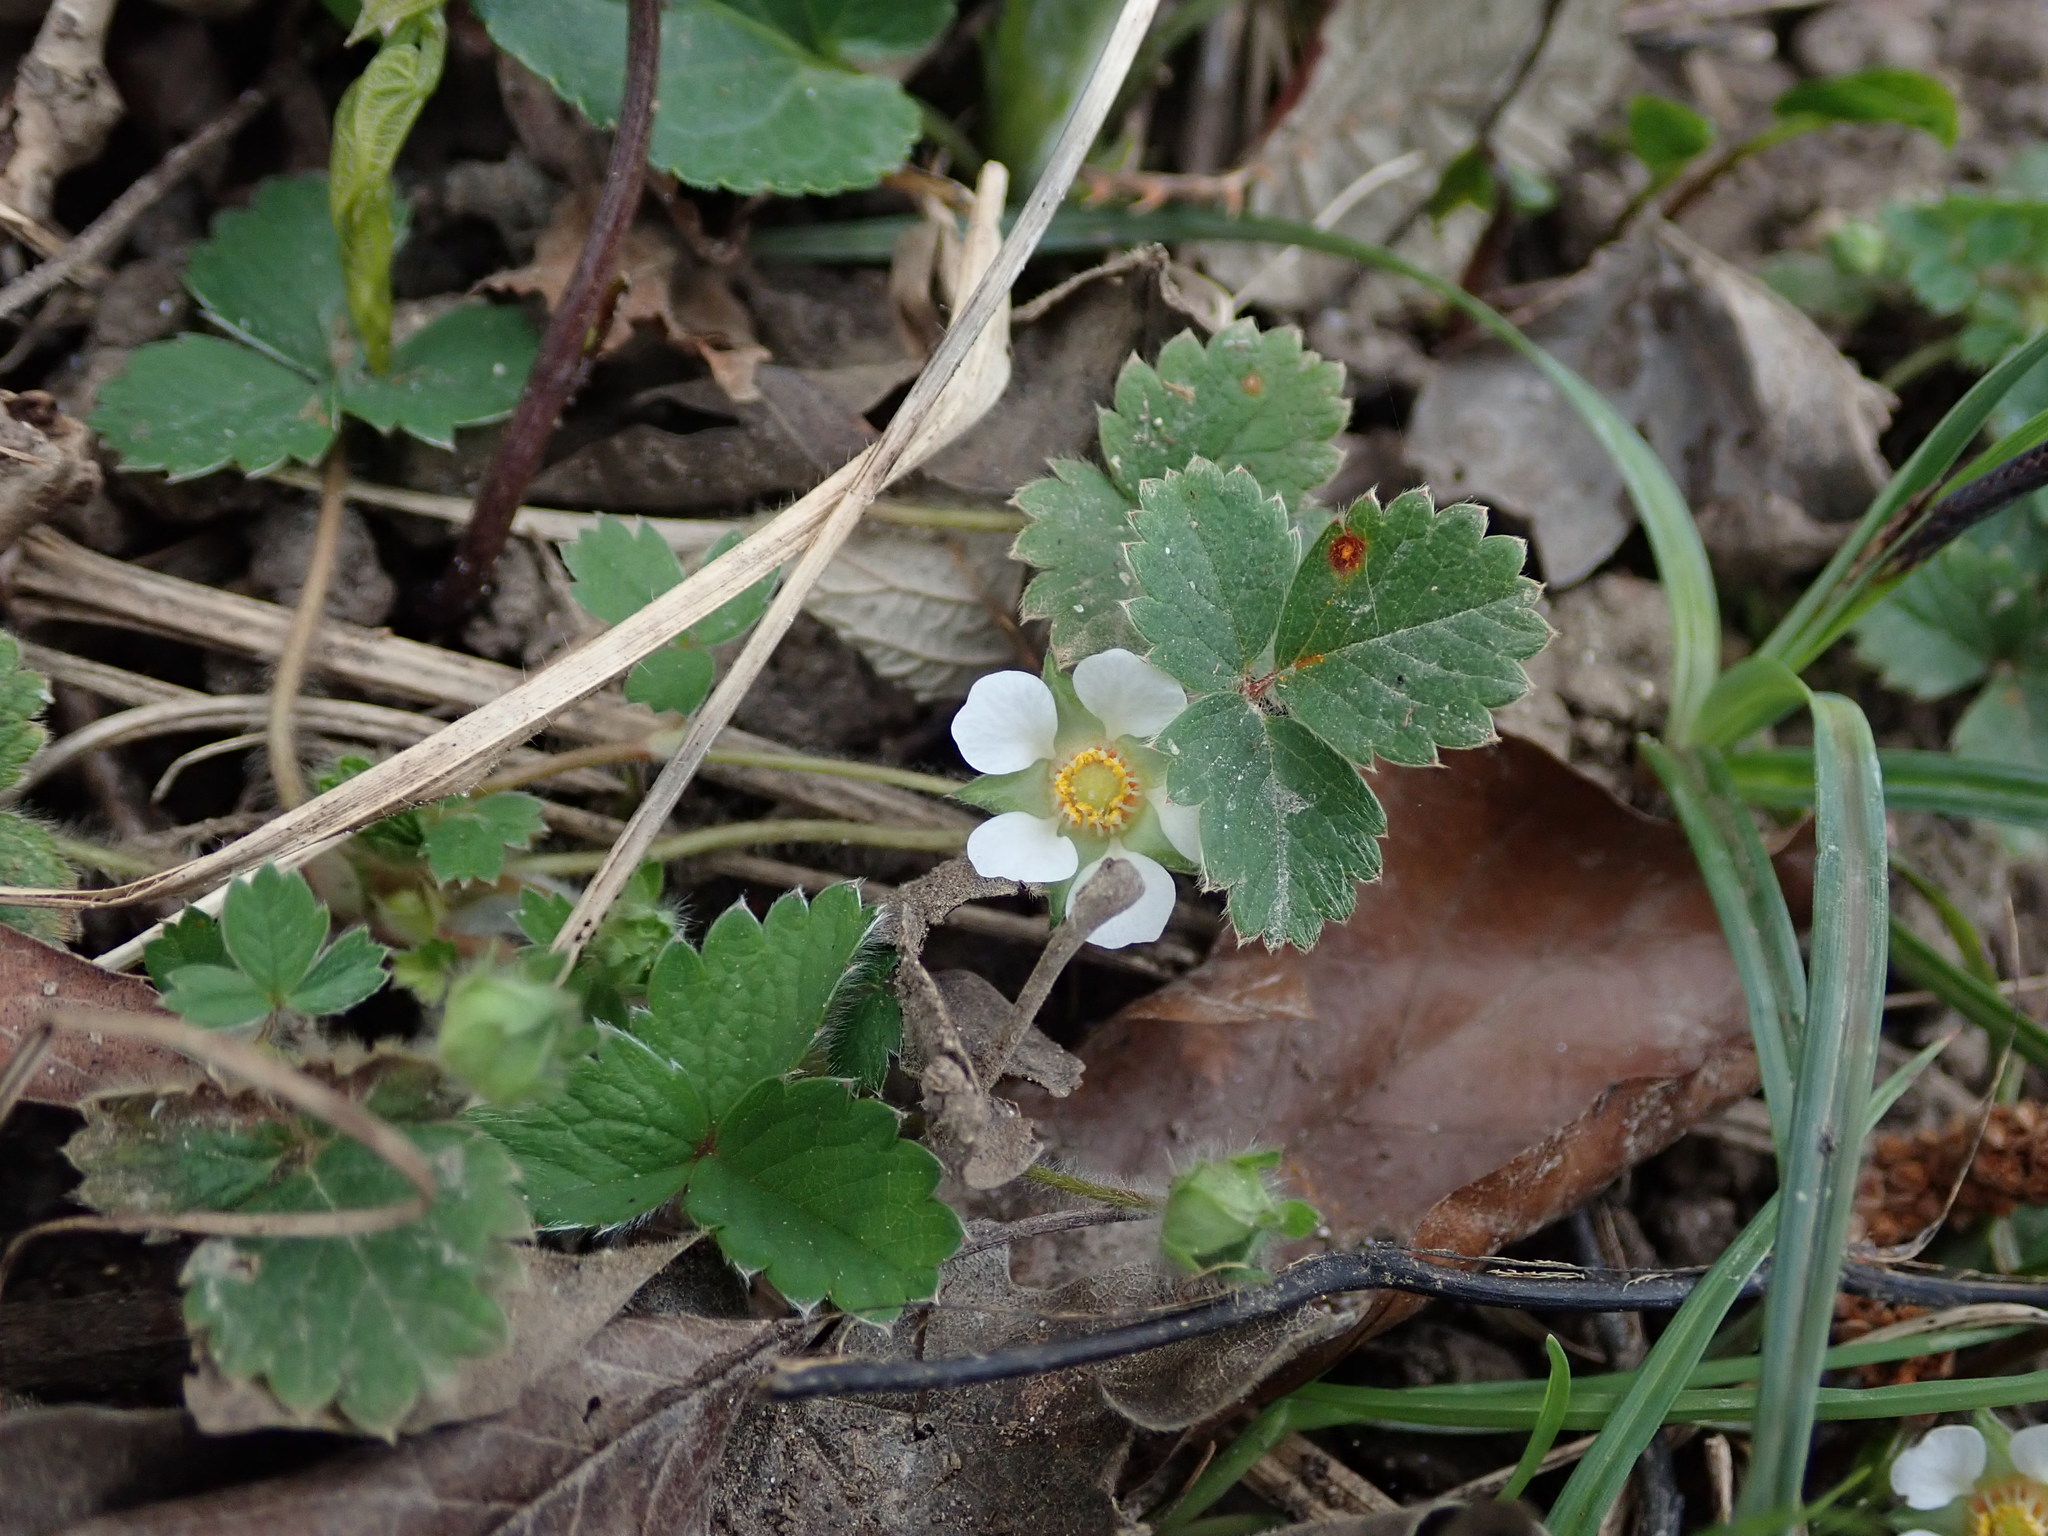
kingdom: Plantae
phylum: Tracheophyta
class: Magnoliopsida
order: Rosales
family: Rosaceae
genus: Potentilla
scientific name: Potentilla sterilis
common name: Barren strawberry
